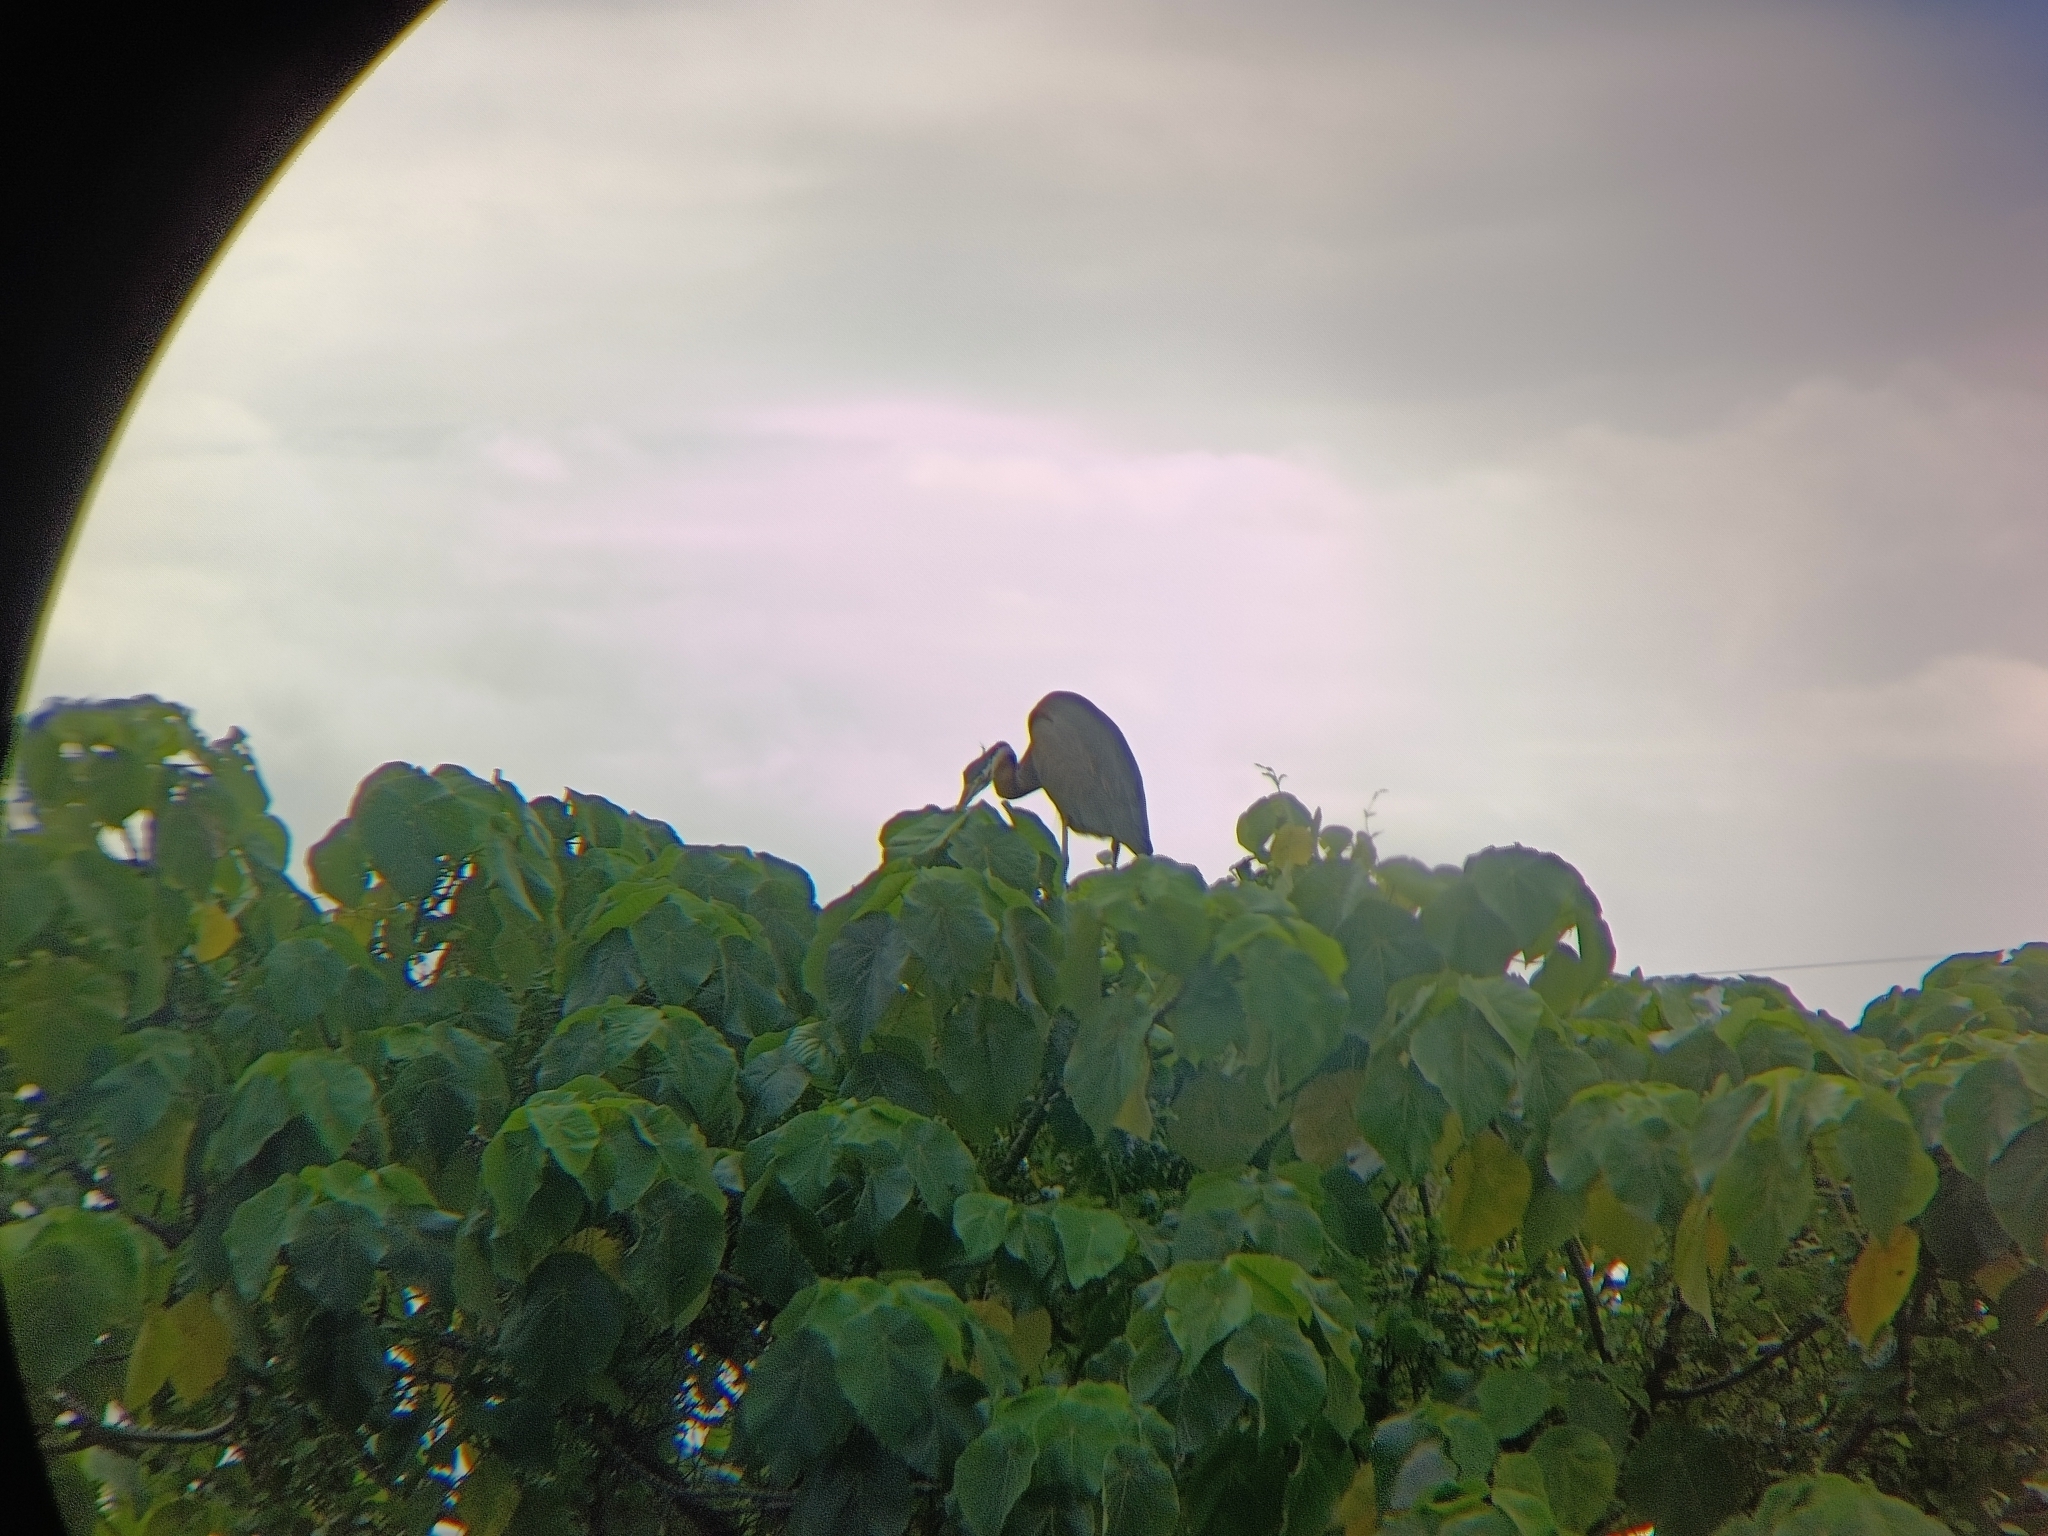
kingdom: Animalia
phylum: Chordata
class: Aves
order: Pelecaniformes
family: Ardeidae
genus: Ardea
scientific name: Ardea purpurea
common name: Purple heron
